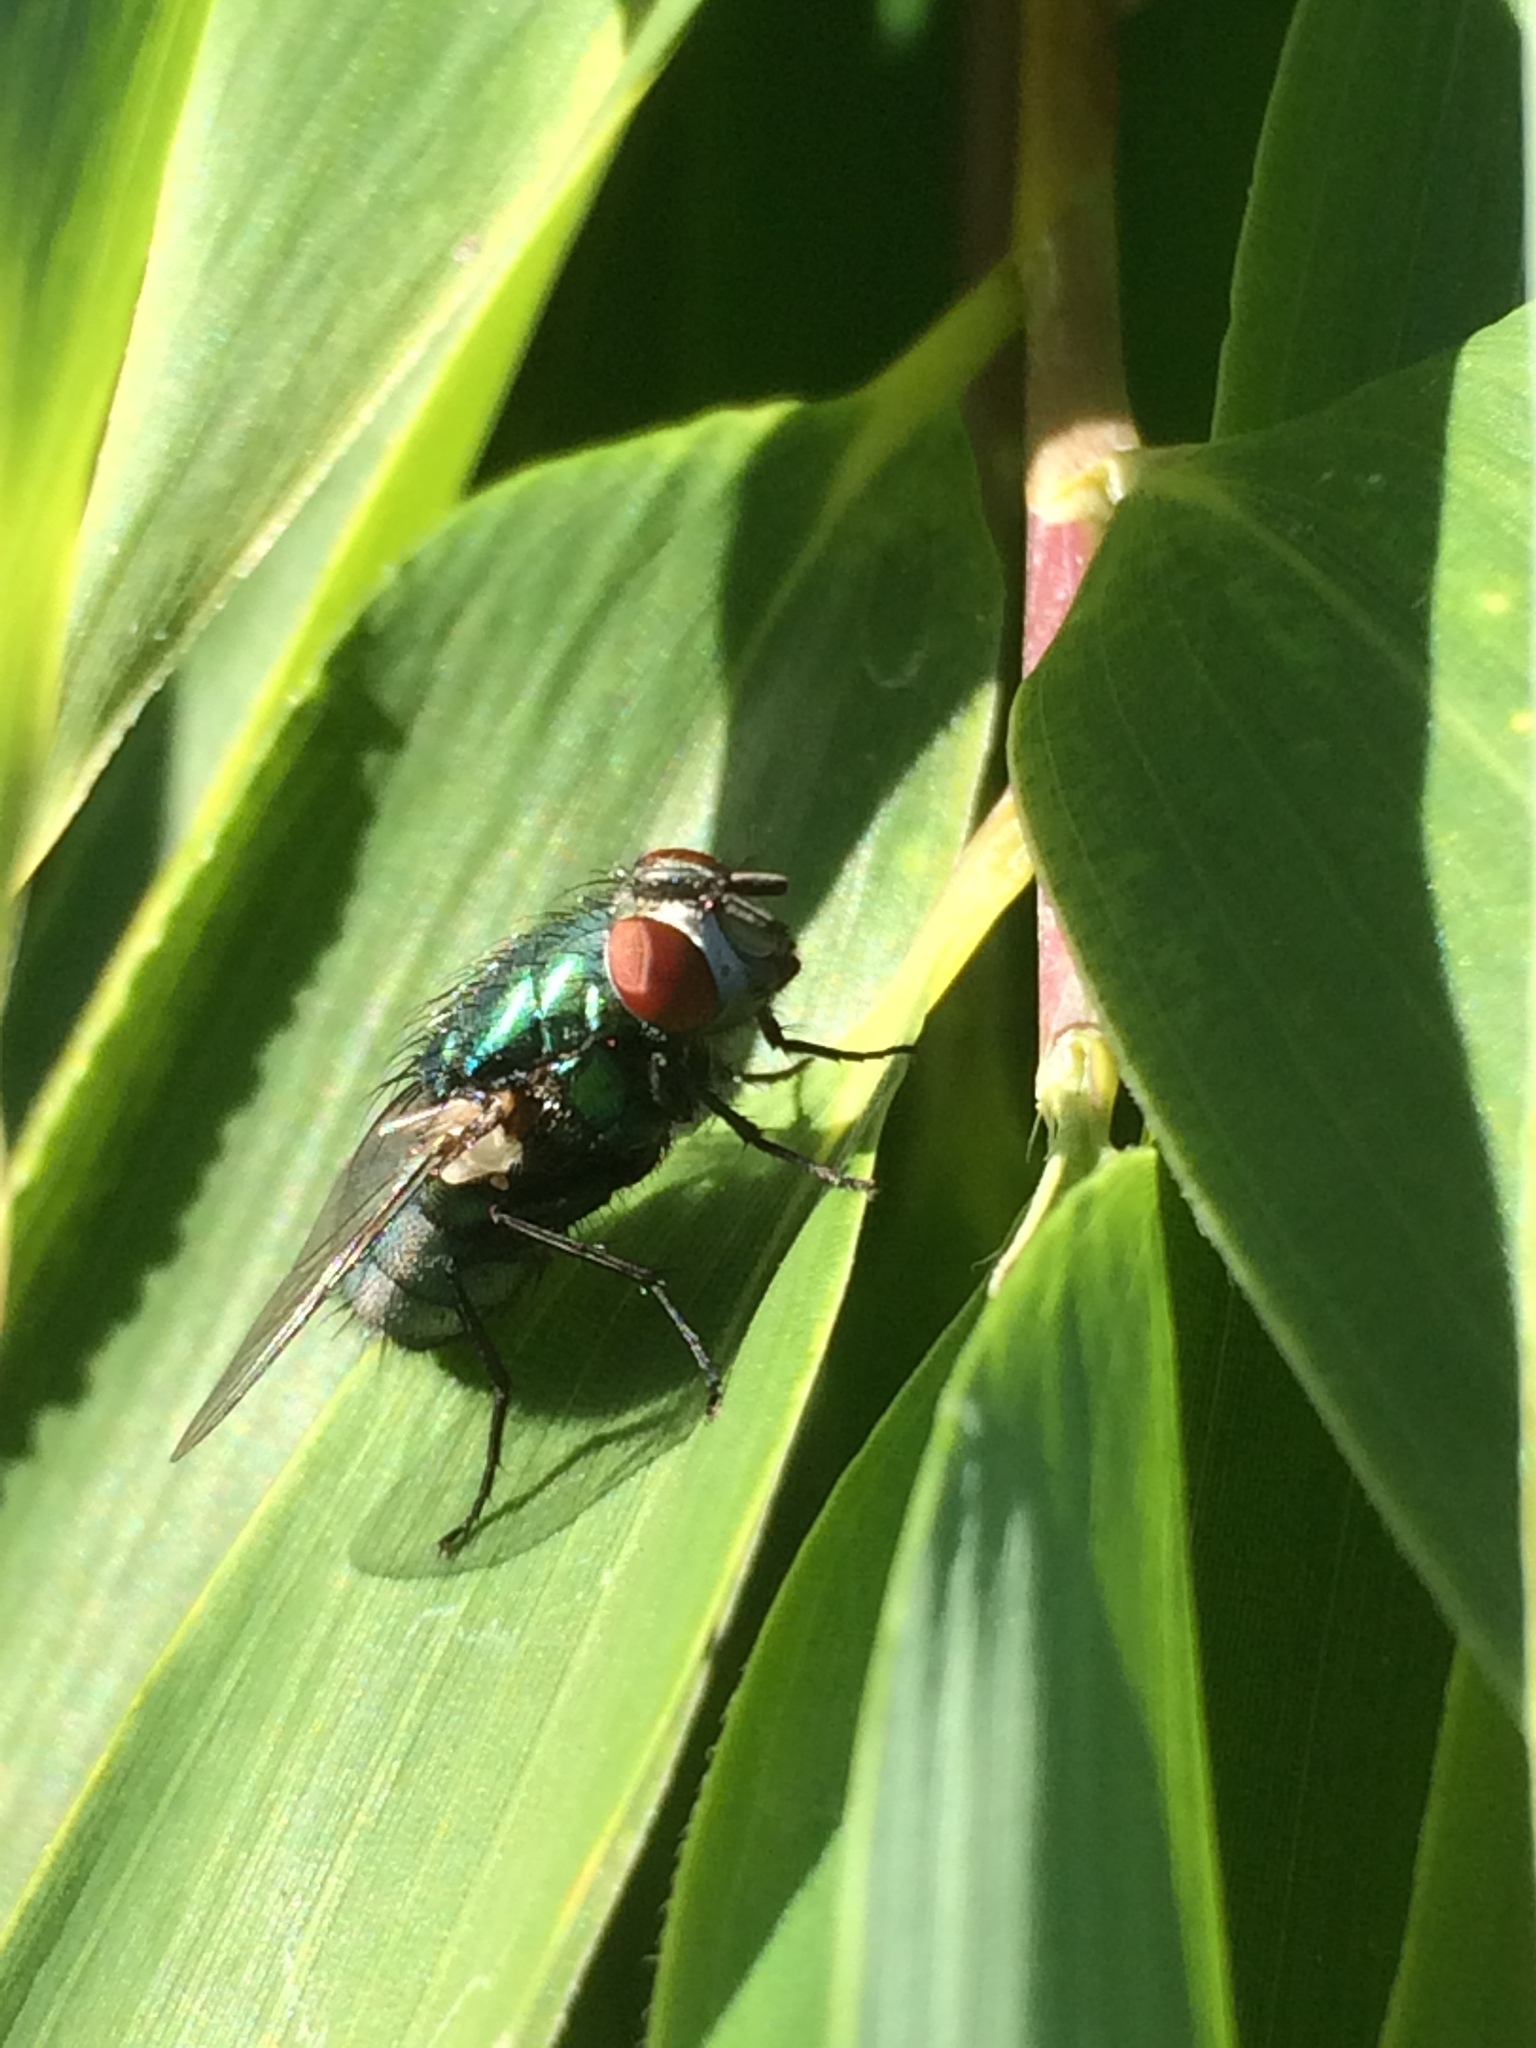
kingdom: Animalia
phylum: Arthropoda
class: Insecta
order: Diptera
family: Calliphoridae
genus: Lucilia
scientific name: Lucilia sericata
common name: Blow fly
